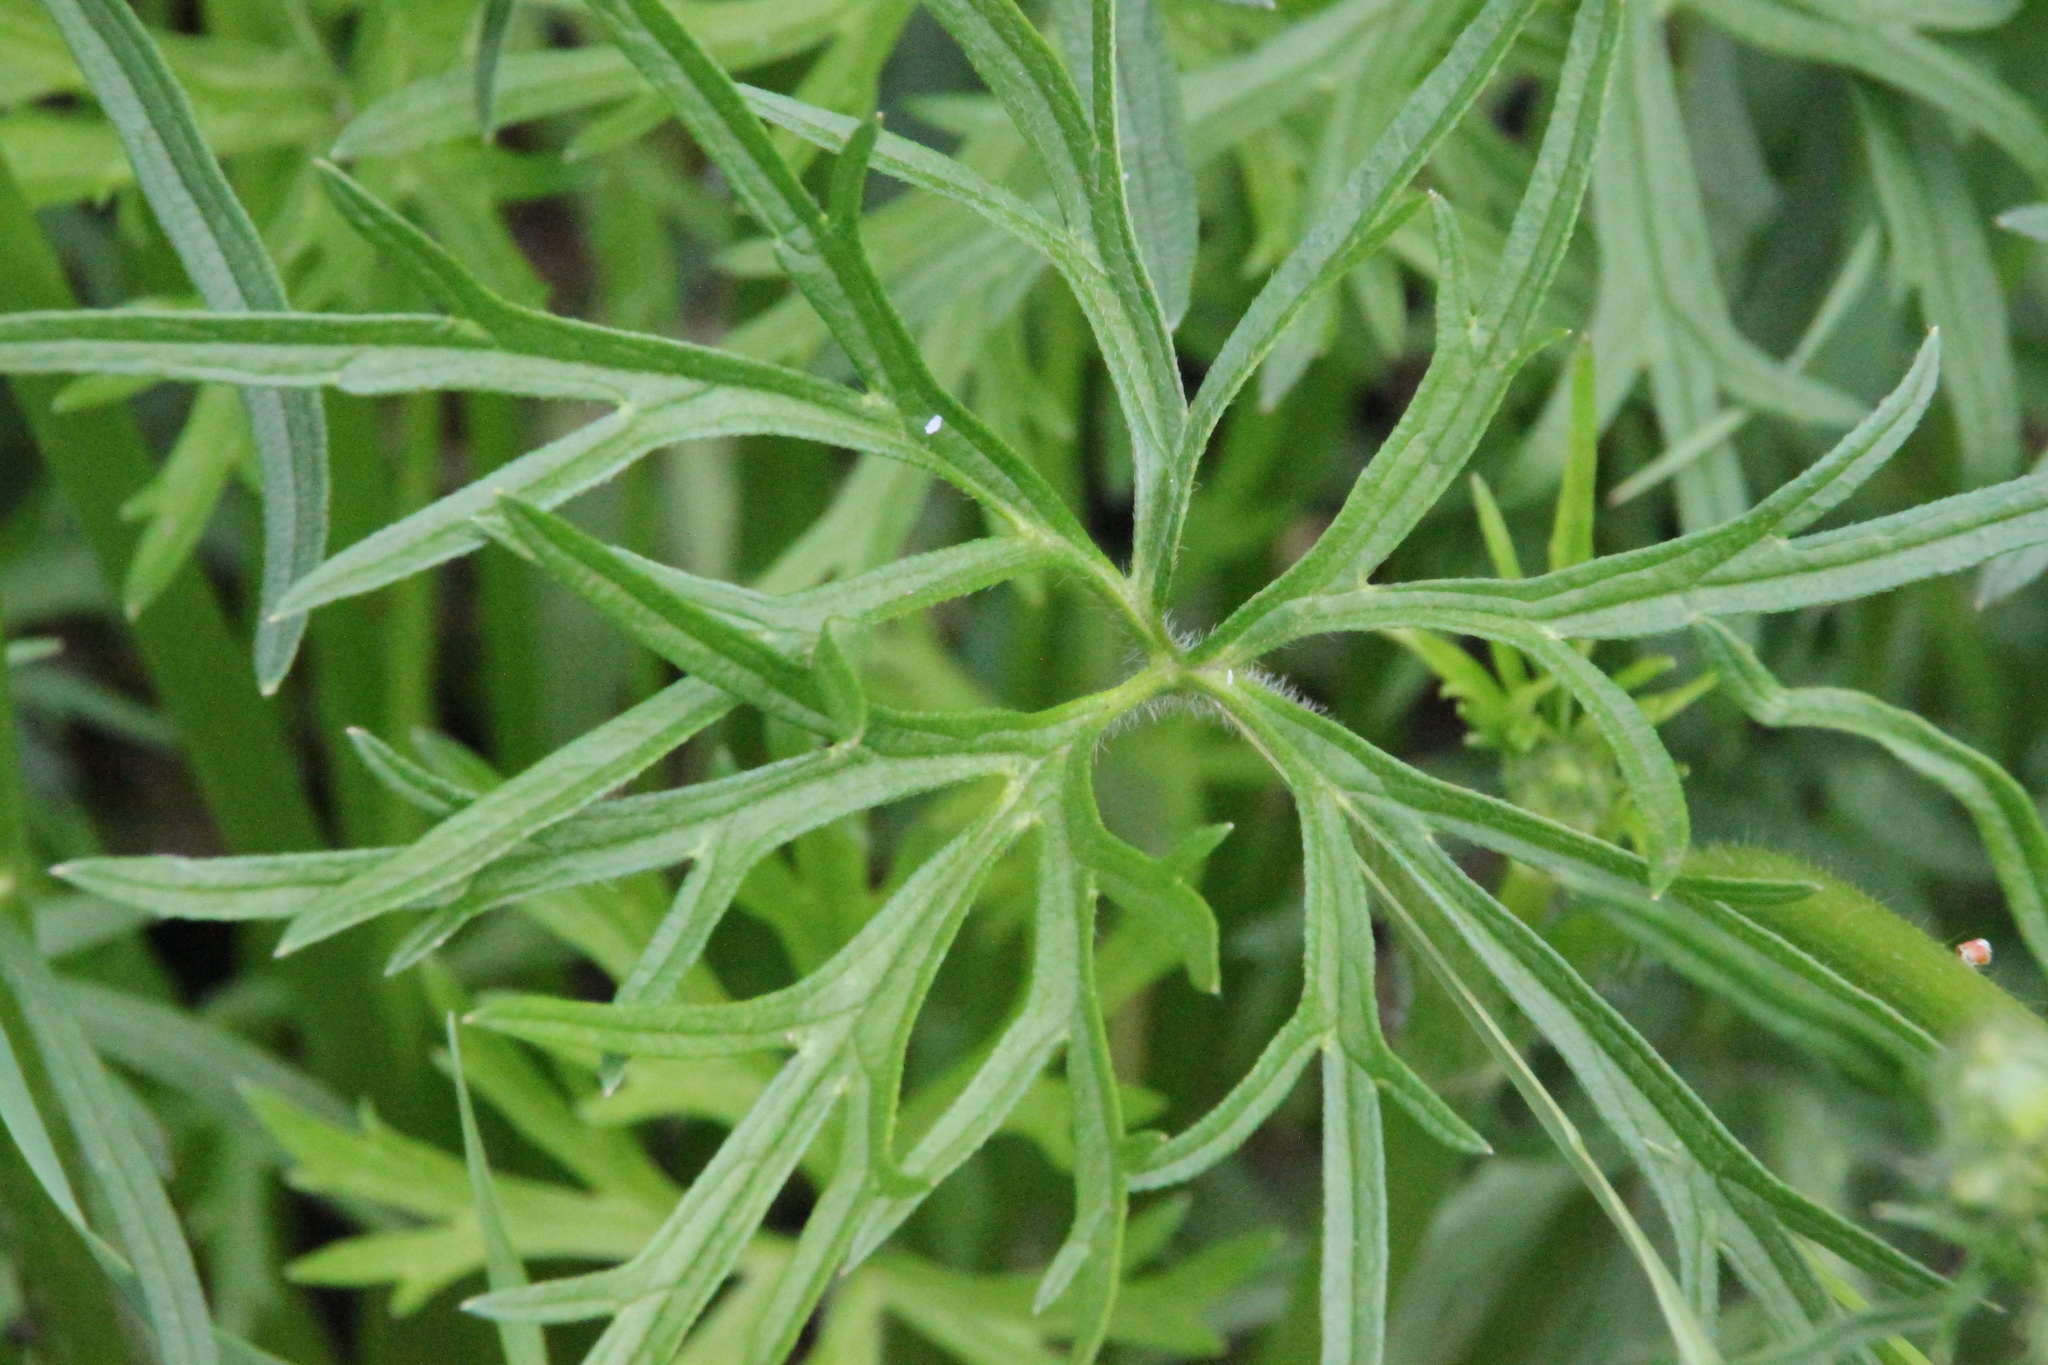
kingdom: Plantae
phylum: Tracheophyta
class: Magnoliopsida
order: Ranunculales
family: Ranunculaceae
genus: Ranunculus
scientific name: Ranunculus polyanthemos
